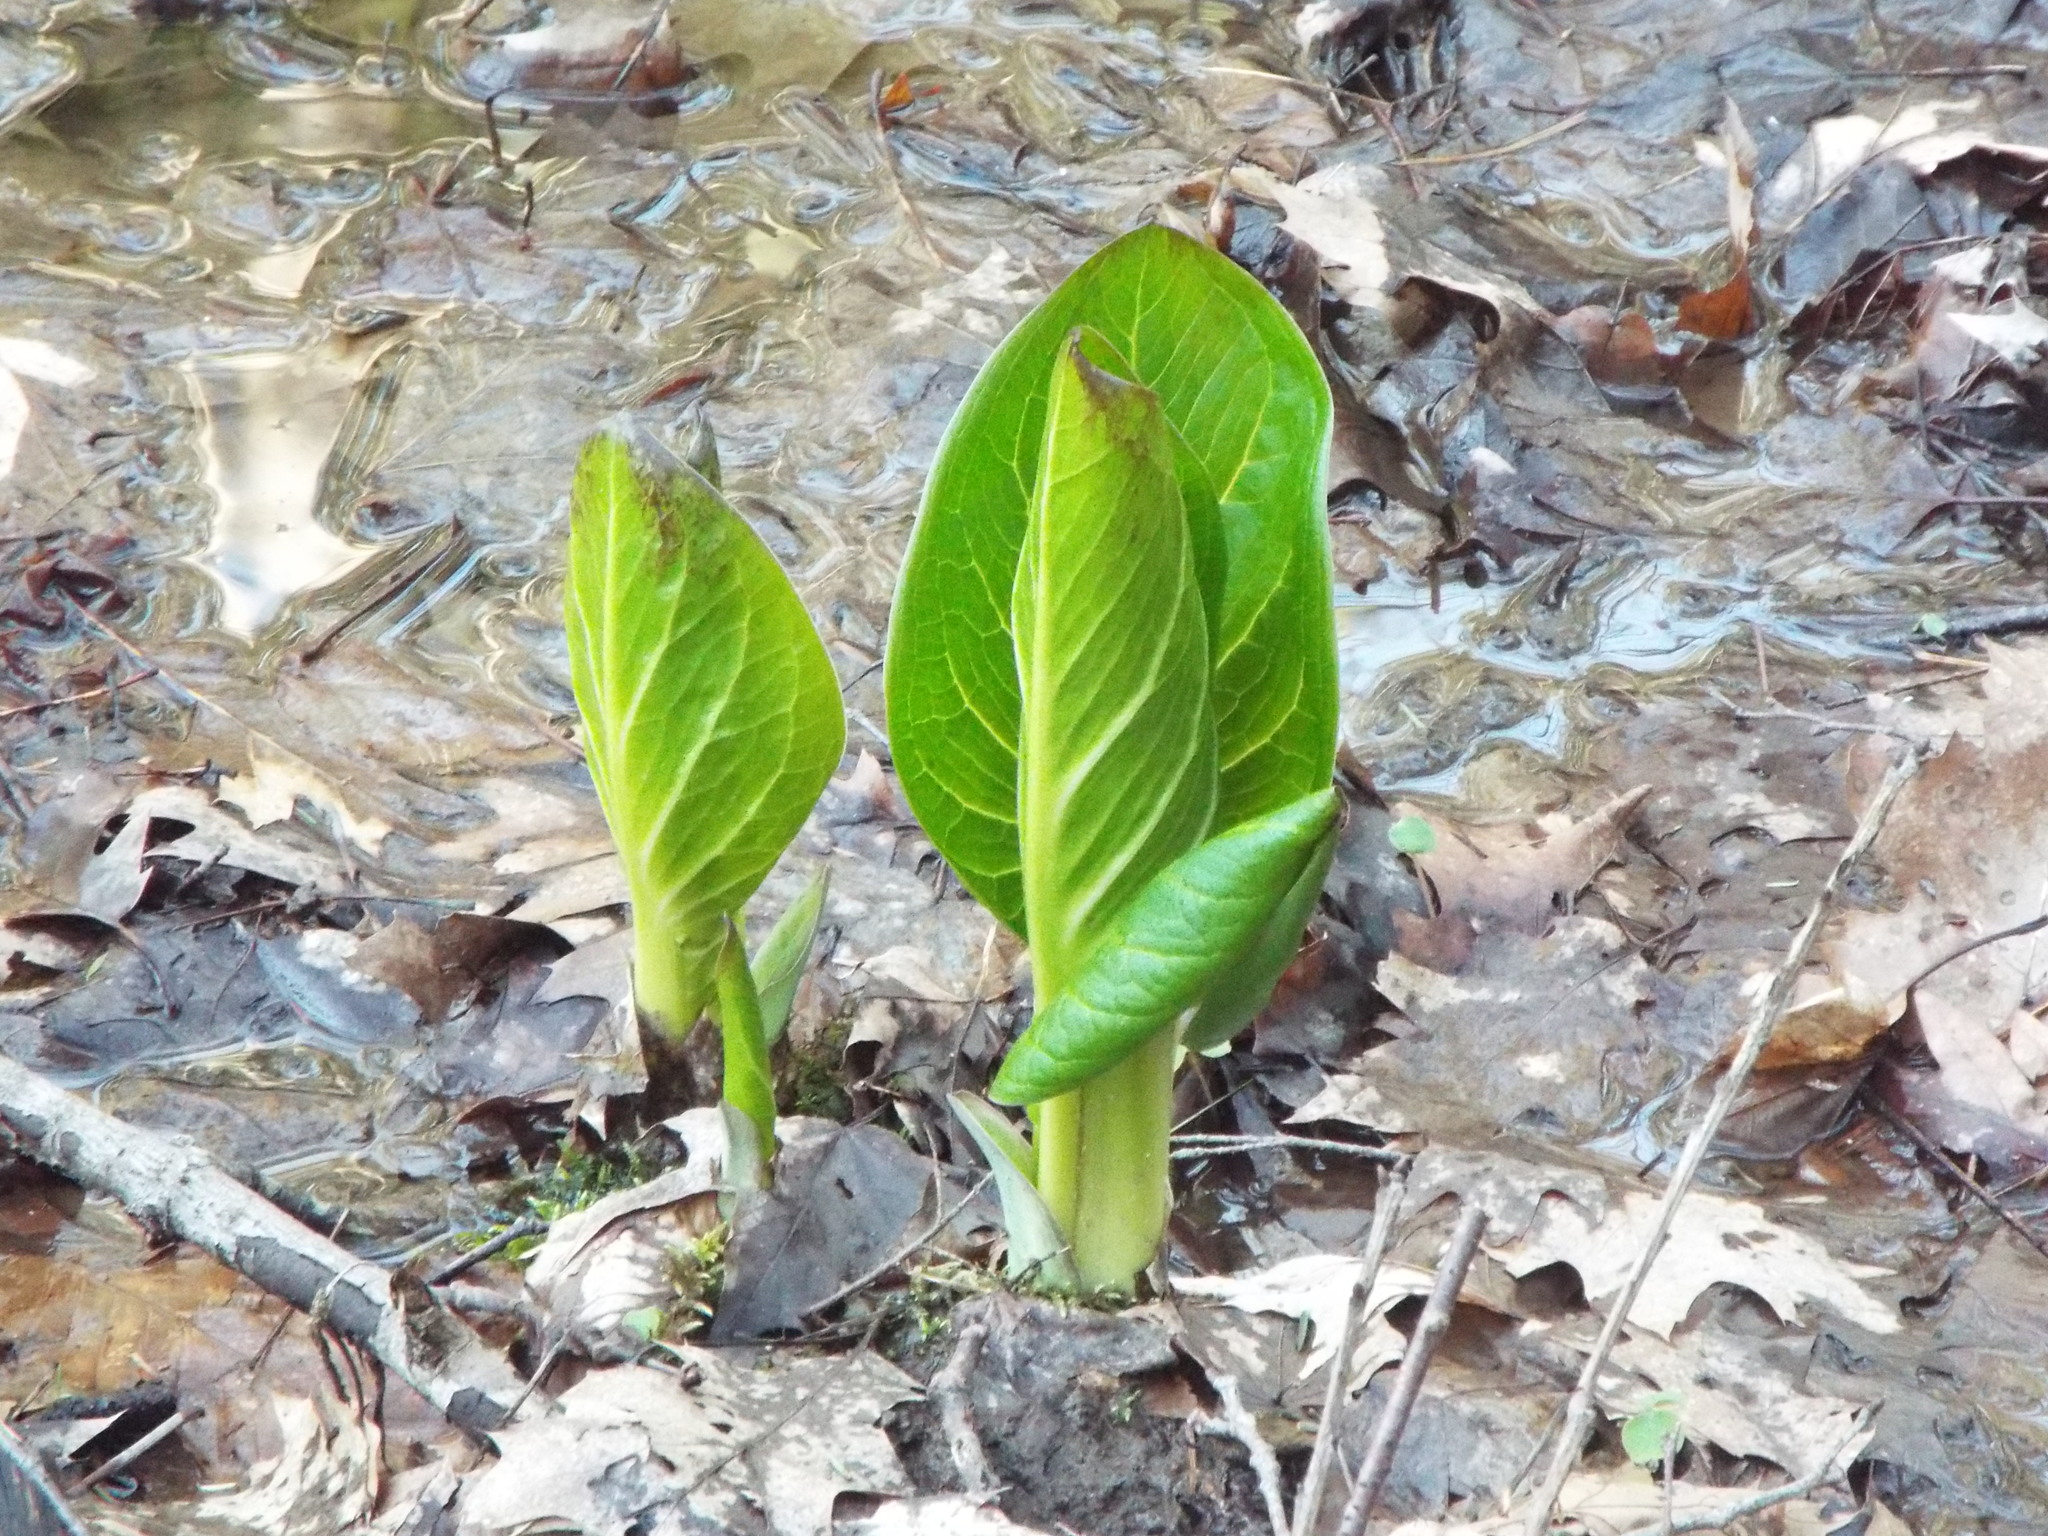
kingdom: Plantae
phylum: Tracheophyta
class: Liliopsida
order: Alismatales
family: Araceae
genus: Symplocarpus
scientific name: Symplocarpus foetidus
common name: Eastern skunk cabbage
